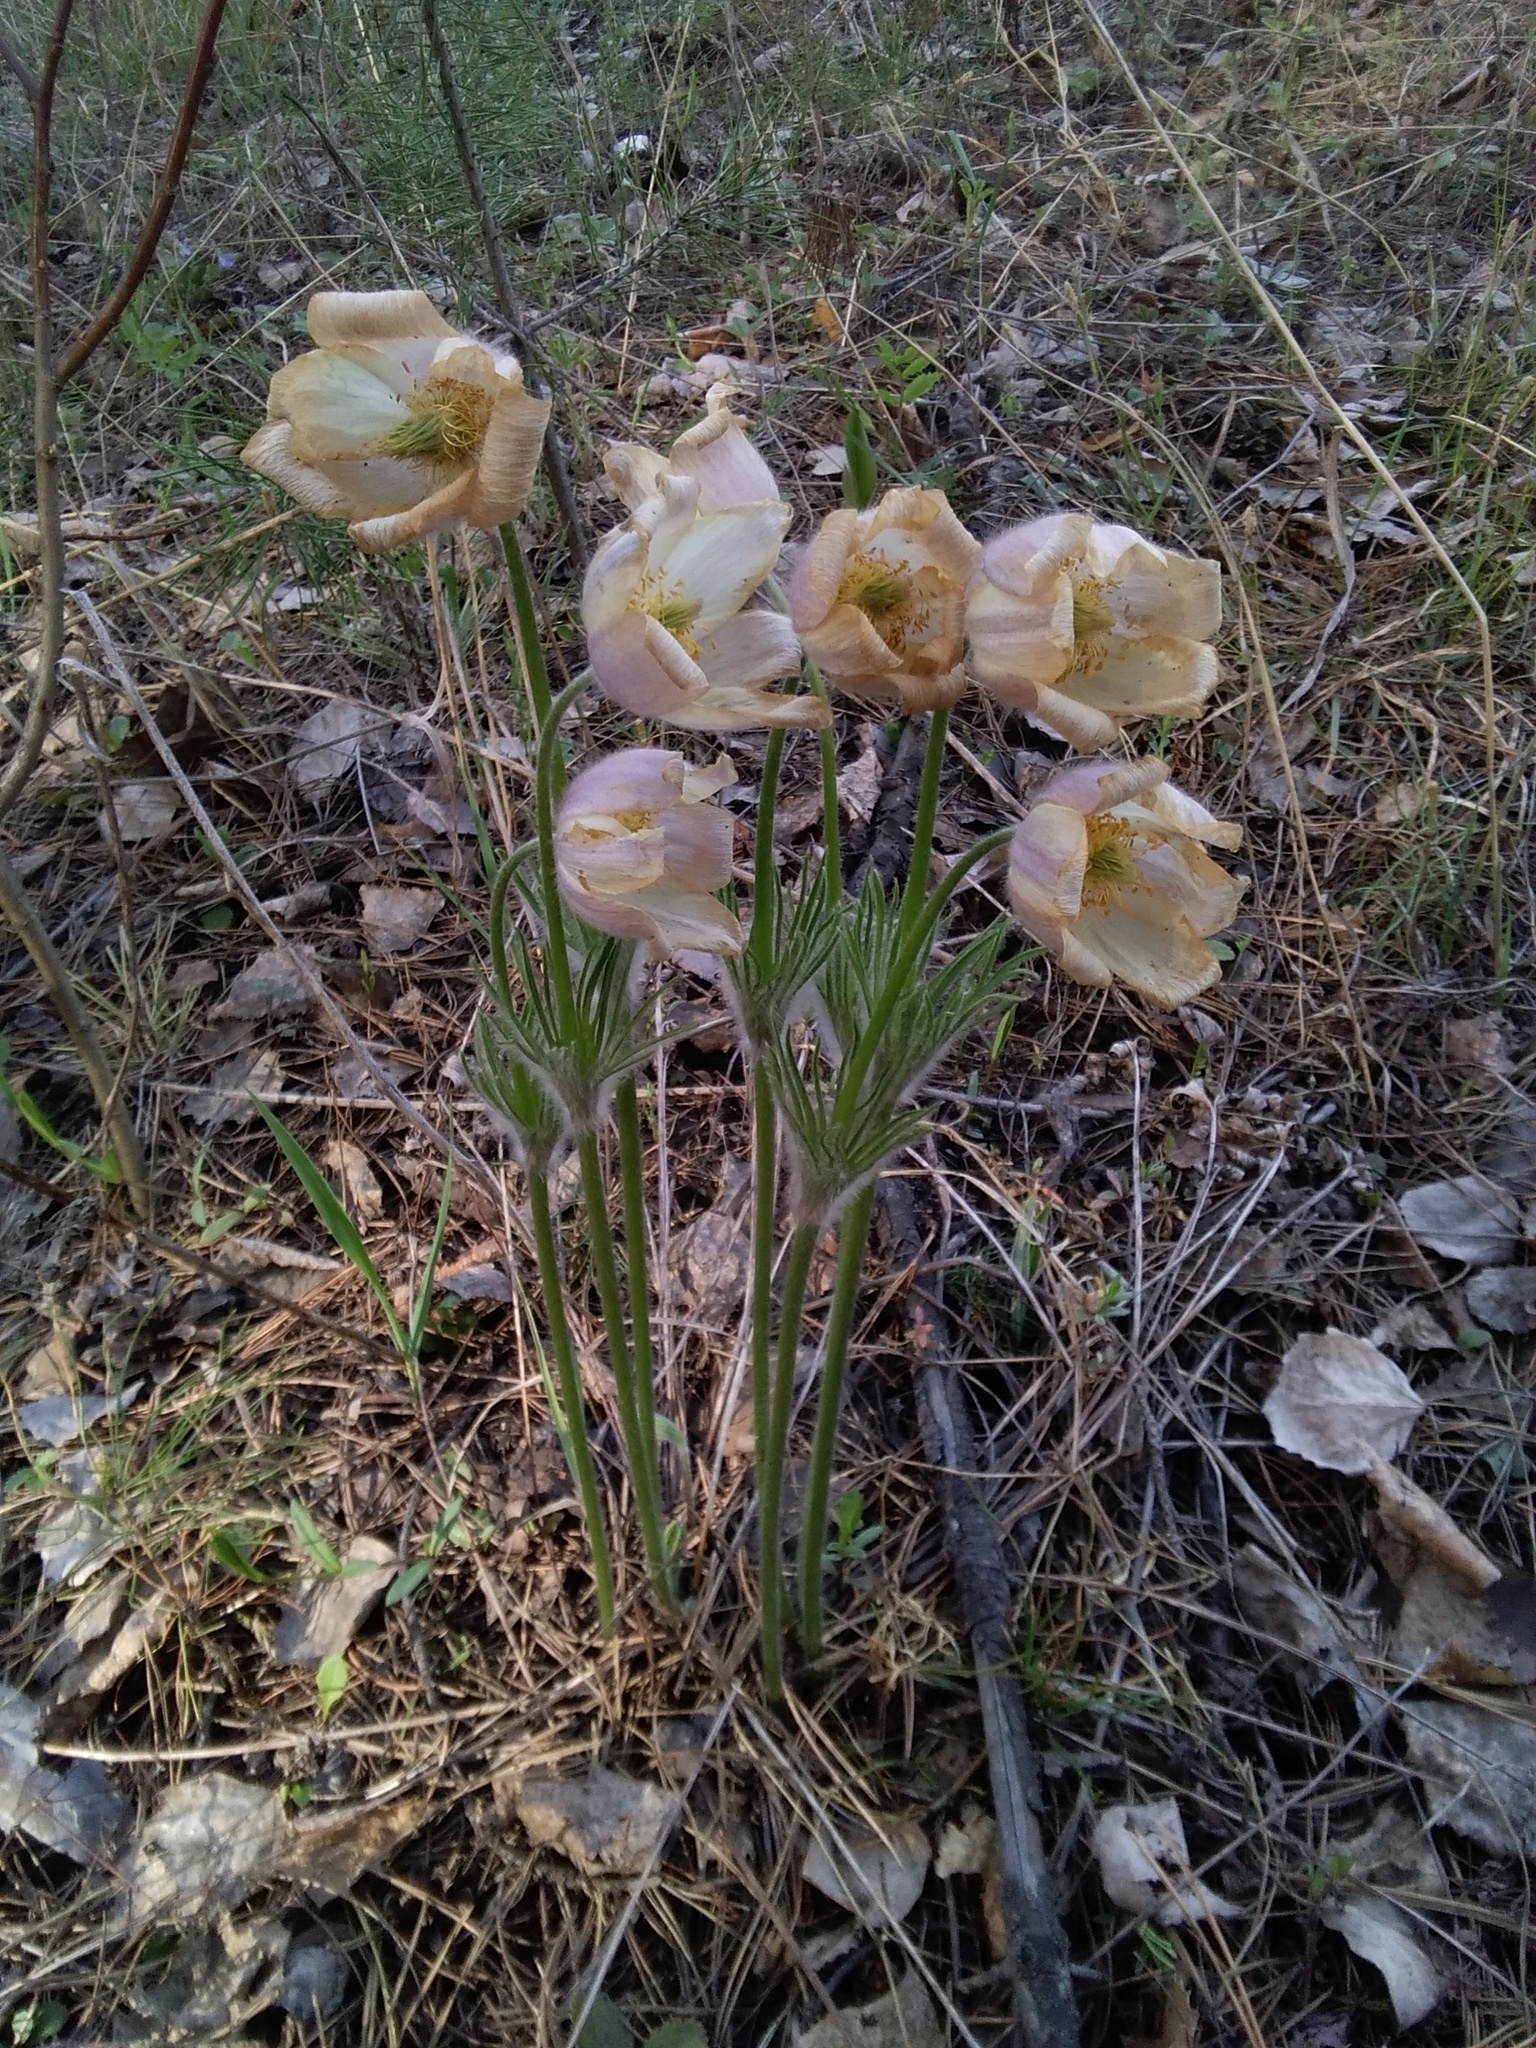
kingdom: Plantae
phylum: Tracheophyta
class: Magnoliopsida
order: Ranunculales
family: Ranunculaceae
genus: Pulsatilla
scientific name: Pulsatilla patens
